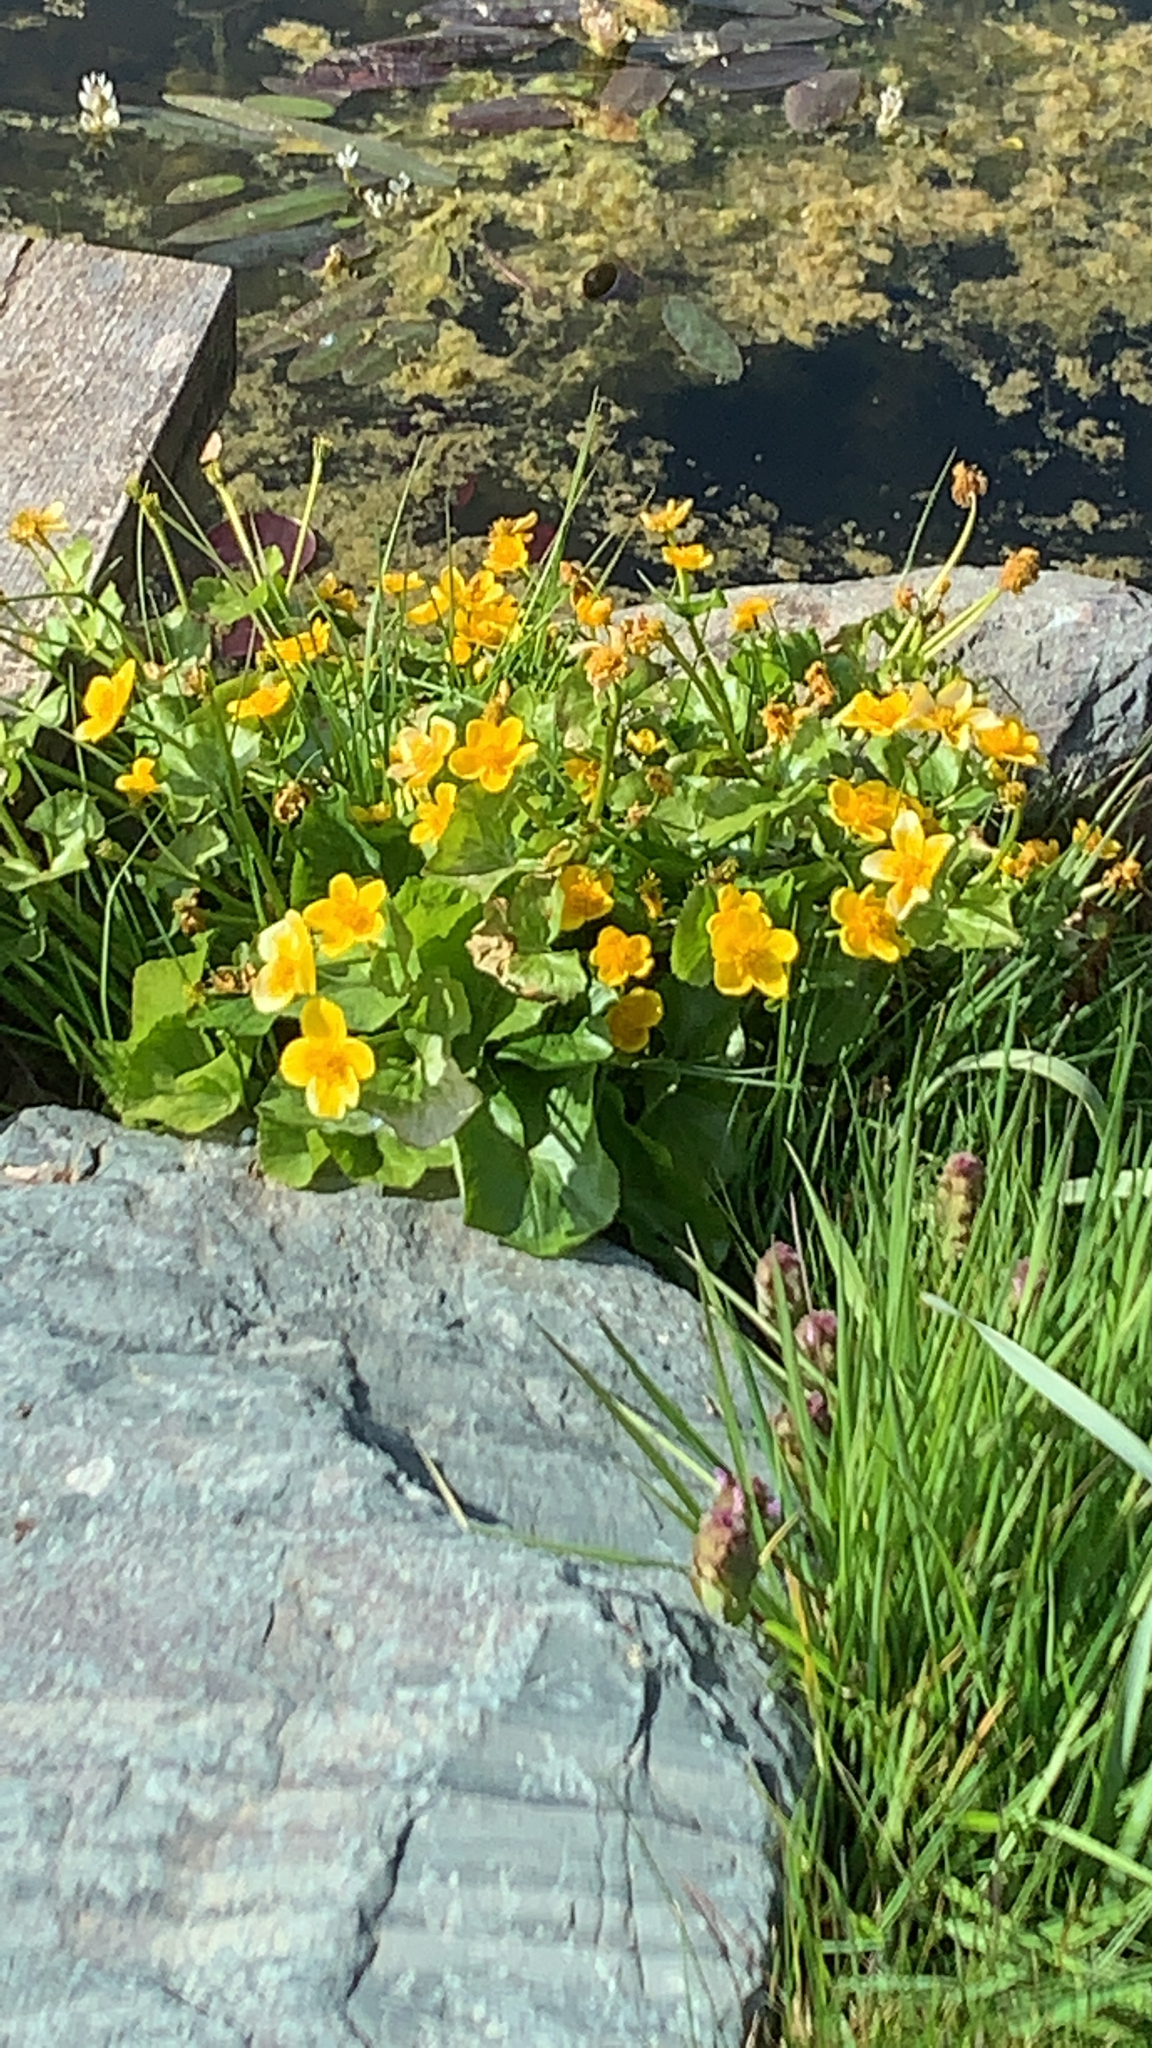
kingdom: Plantae
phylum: Tracheophyta
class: Magnoliopsida
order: Ranunculales
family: Ranunculaceae
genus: Caltha
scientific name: Caltha palustris
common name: Marsh marigold
